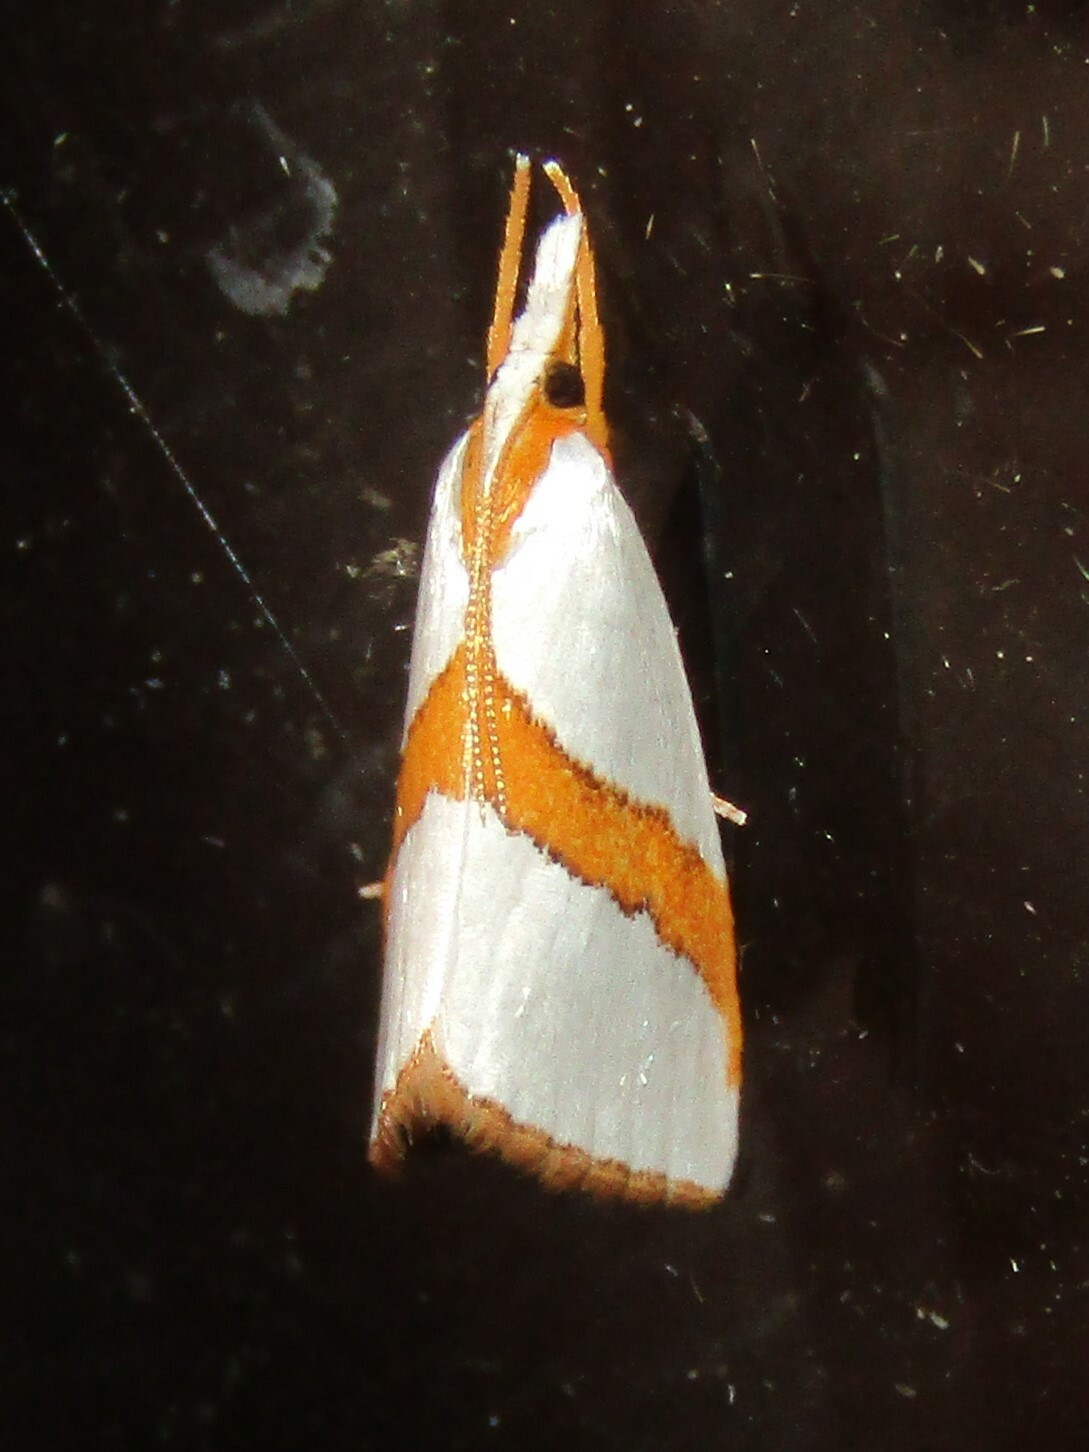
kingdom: Animalia
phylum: Arthropoda
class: Insecta
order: Lepidoptera
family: Crambidae
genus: Vaxi
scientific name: Vaxi critica
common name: Straight-lined vaxi moth
